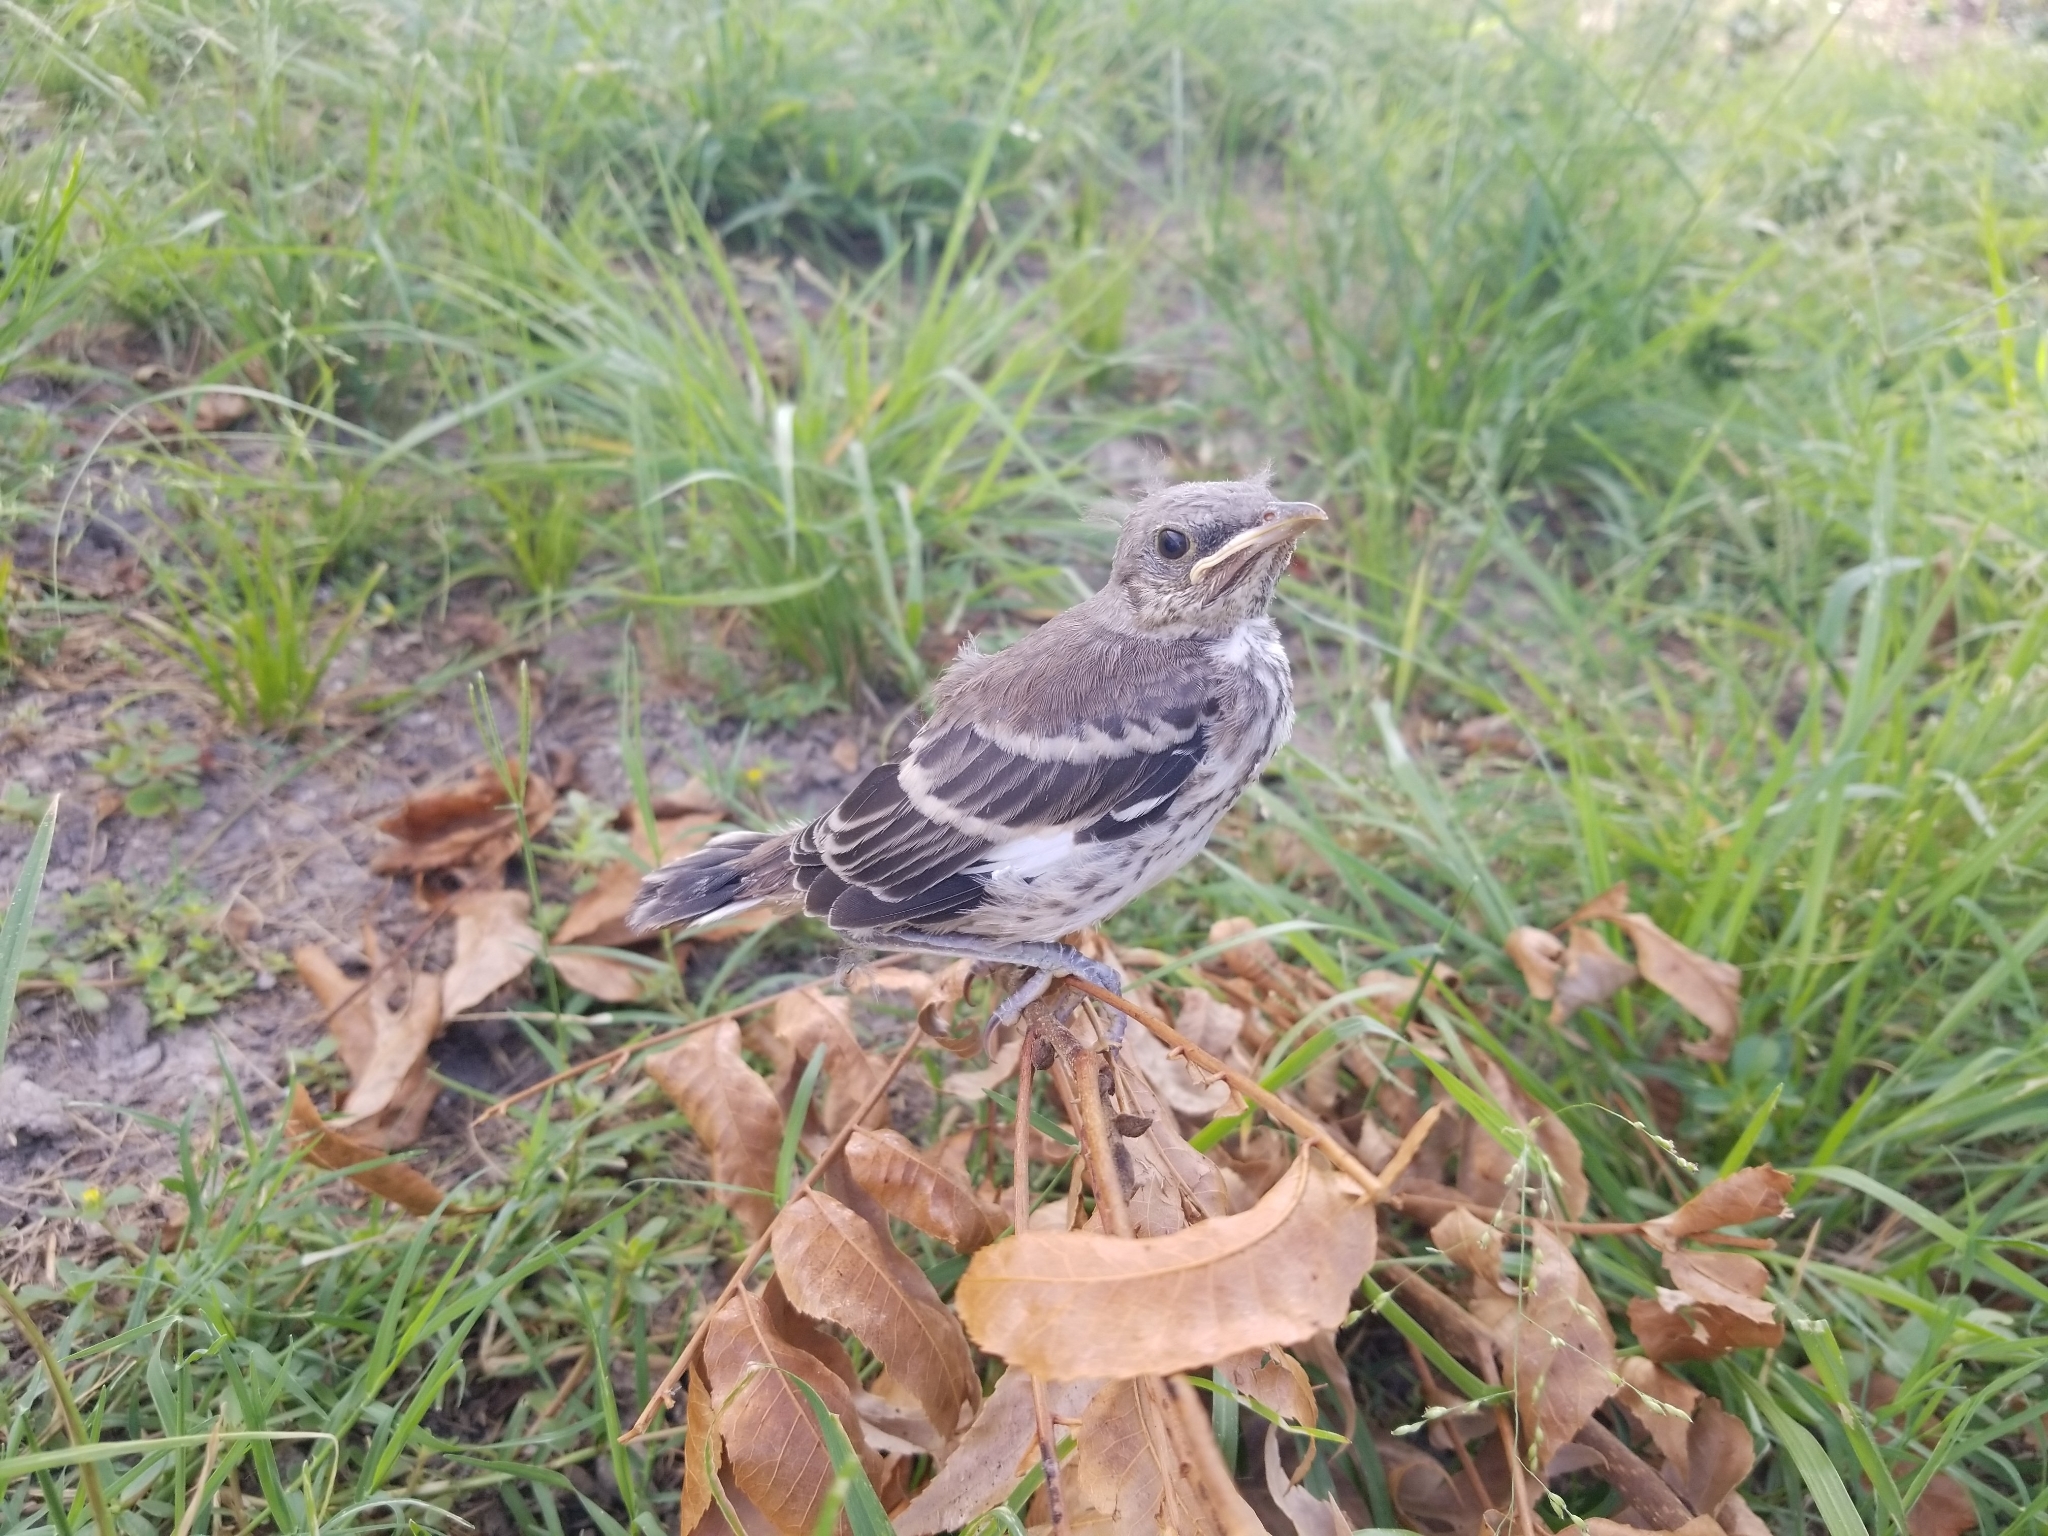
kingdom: Animalia
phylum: Chordata
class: Aves
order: Passeriformes
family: Mimidae
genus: Mimus
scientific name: Mimus polyglottos
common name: Northern mockingbird
